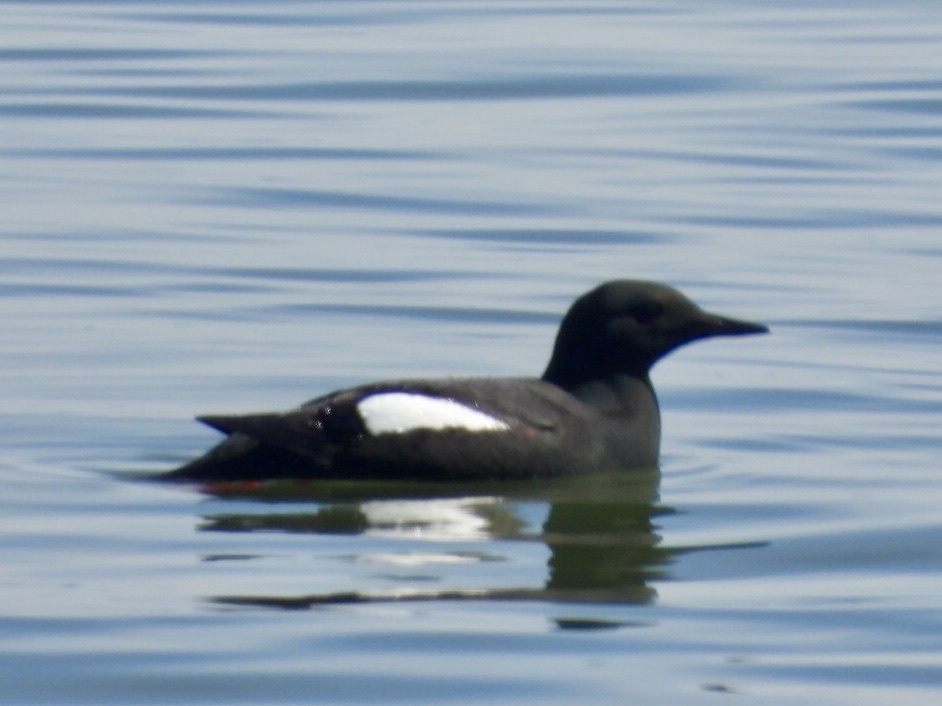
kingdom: Animalia
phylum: Chordata
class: Aves
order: Charadriiformes
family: Alcidae
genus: Cepphus
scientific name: Cepphus grylle
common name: Black guillemot
